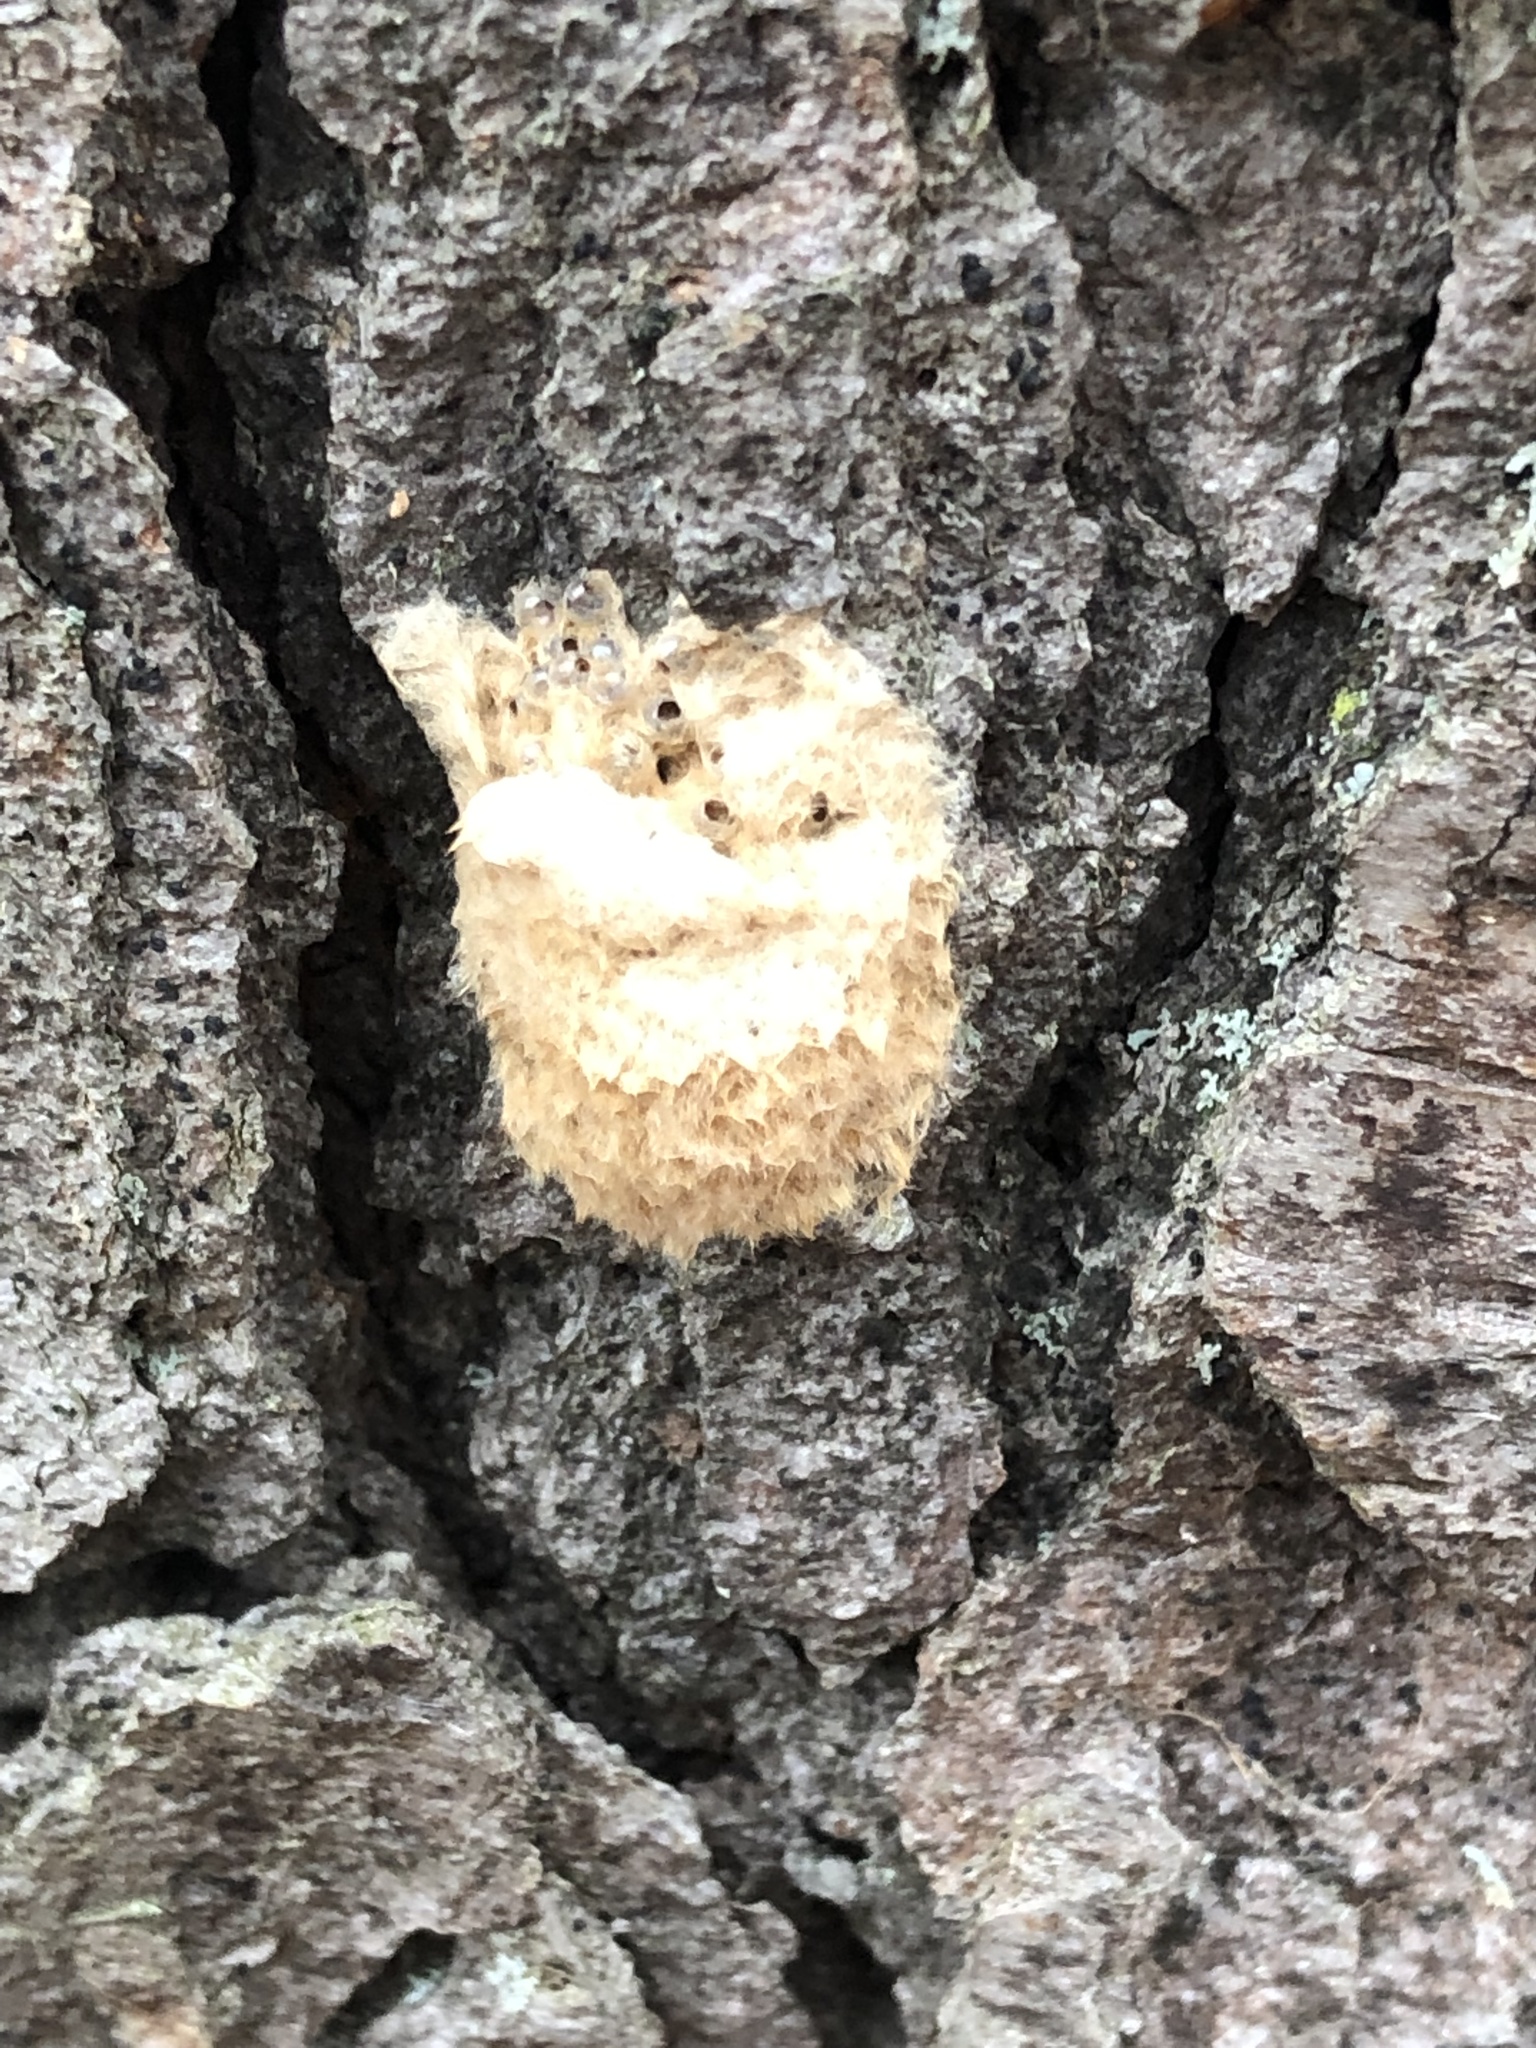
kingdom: Animalia
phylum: Arthropoda
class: Insecta
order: Lepidoptera
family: Erebidae
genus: Lymantria
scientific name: Lymantria dispar
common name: Gypsy moth
